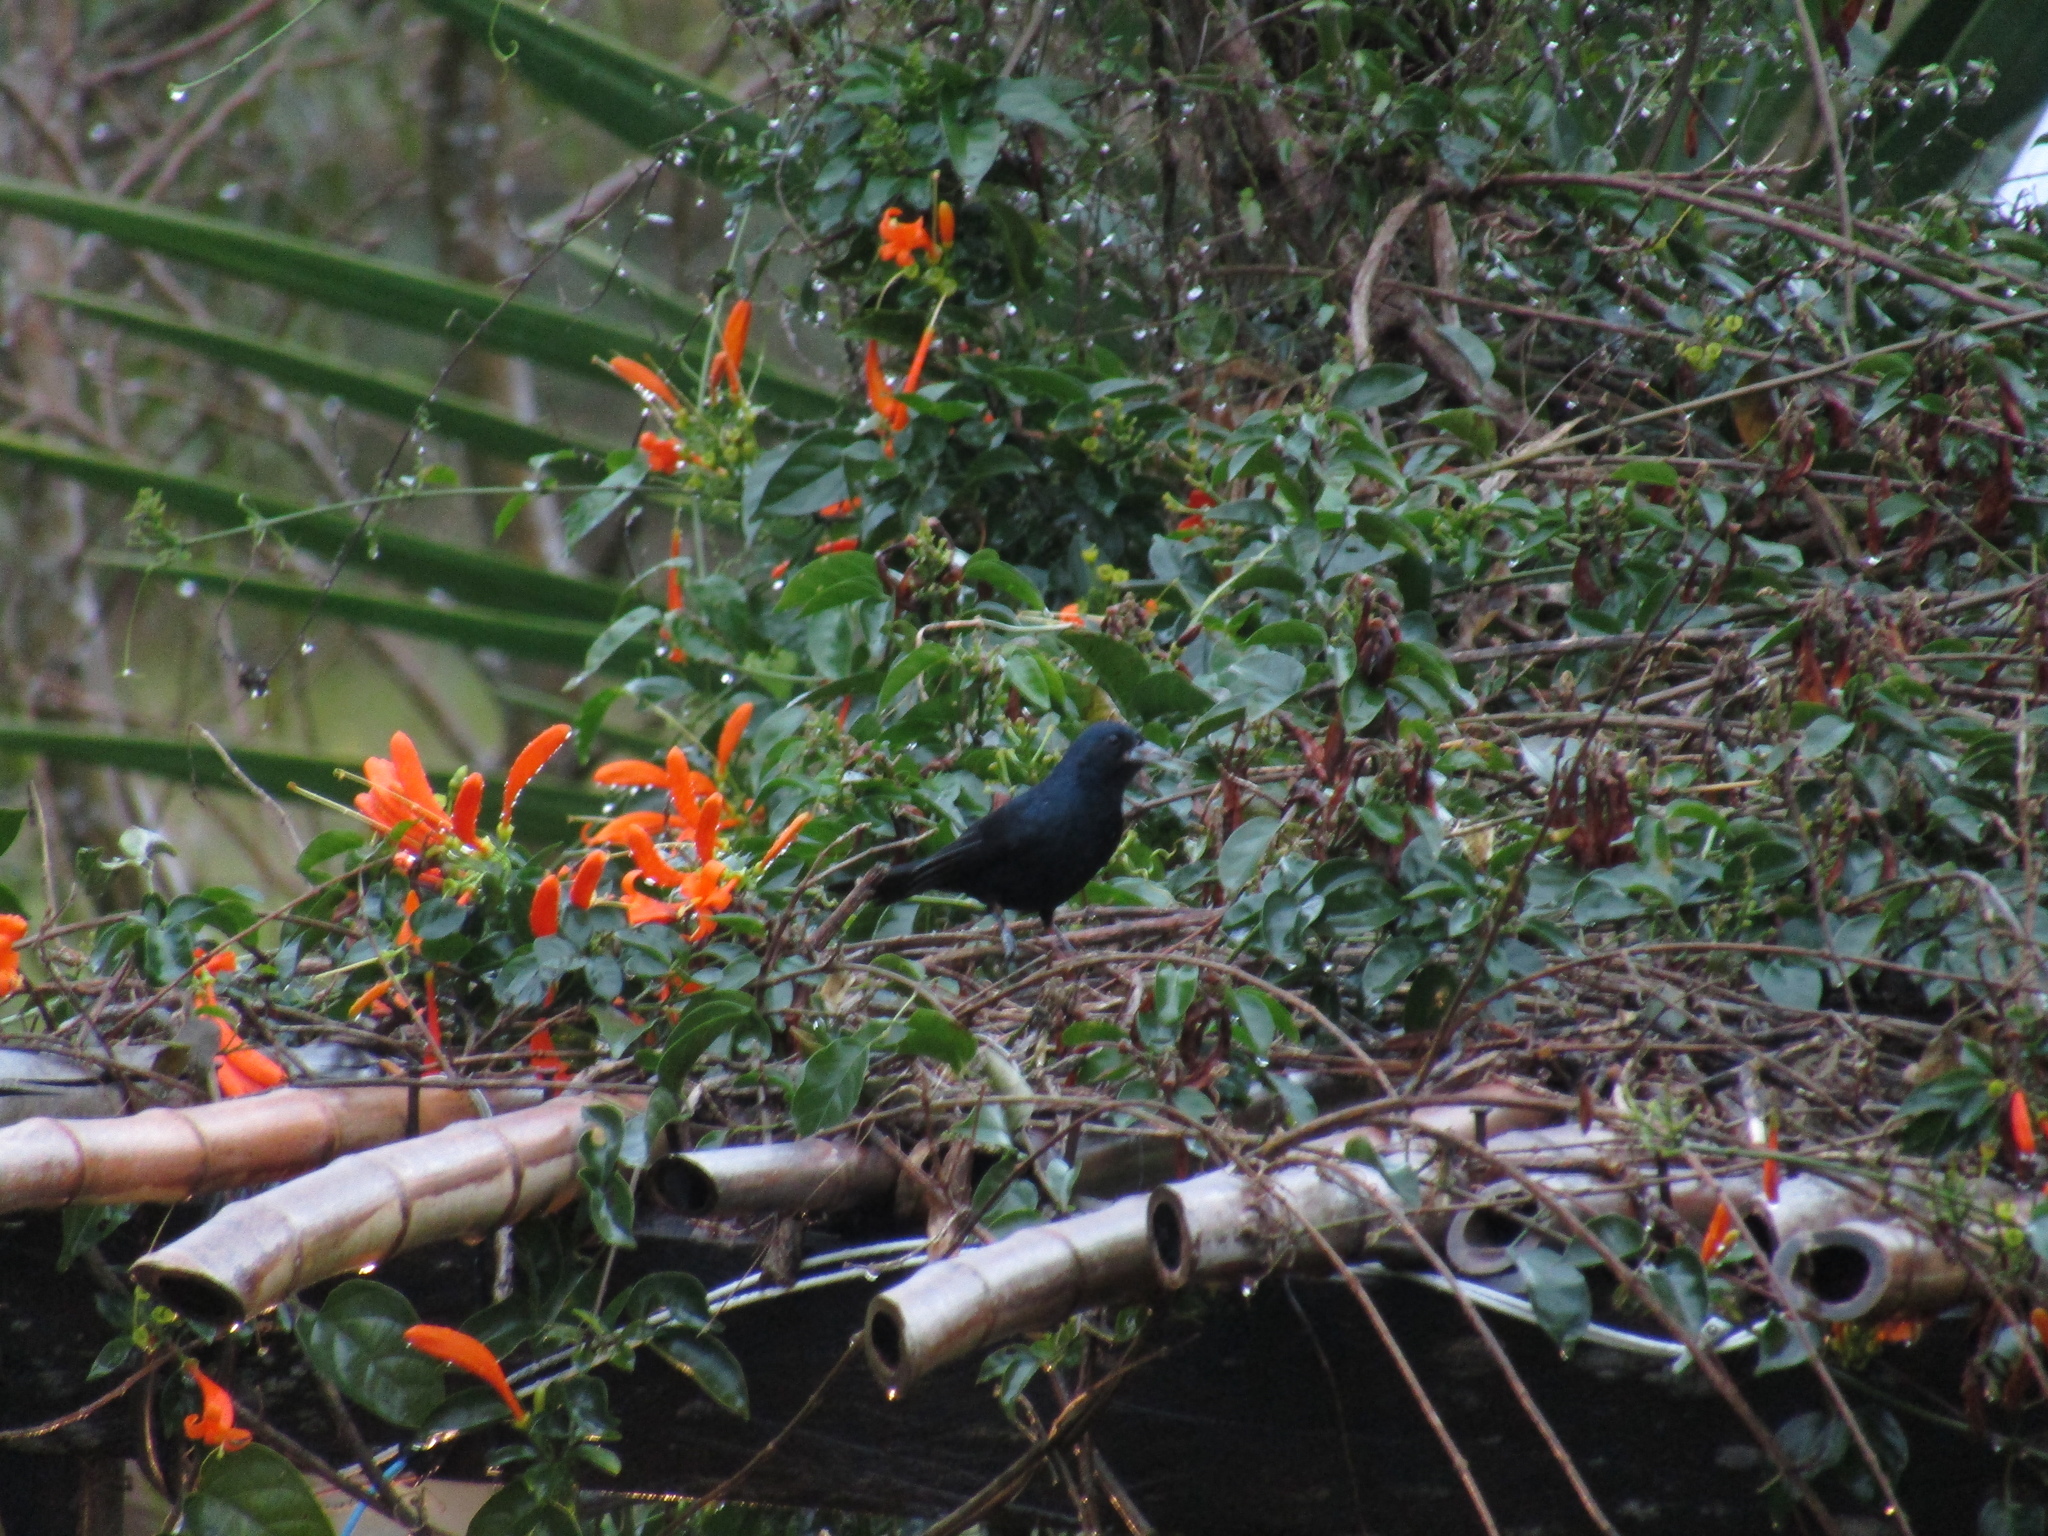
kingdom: Animalia
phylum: Chordata
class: Aves
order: Passeriformes
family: Thraupidae
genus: Tachyphonus
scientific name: Tachyphonus coronatus
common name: Ruby-crowned tanager
